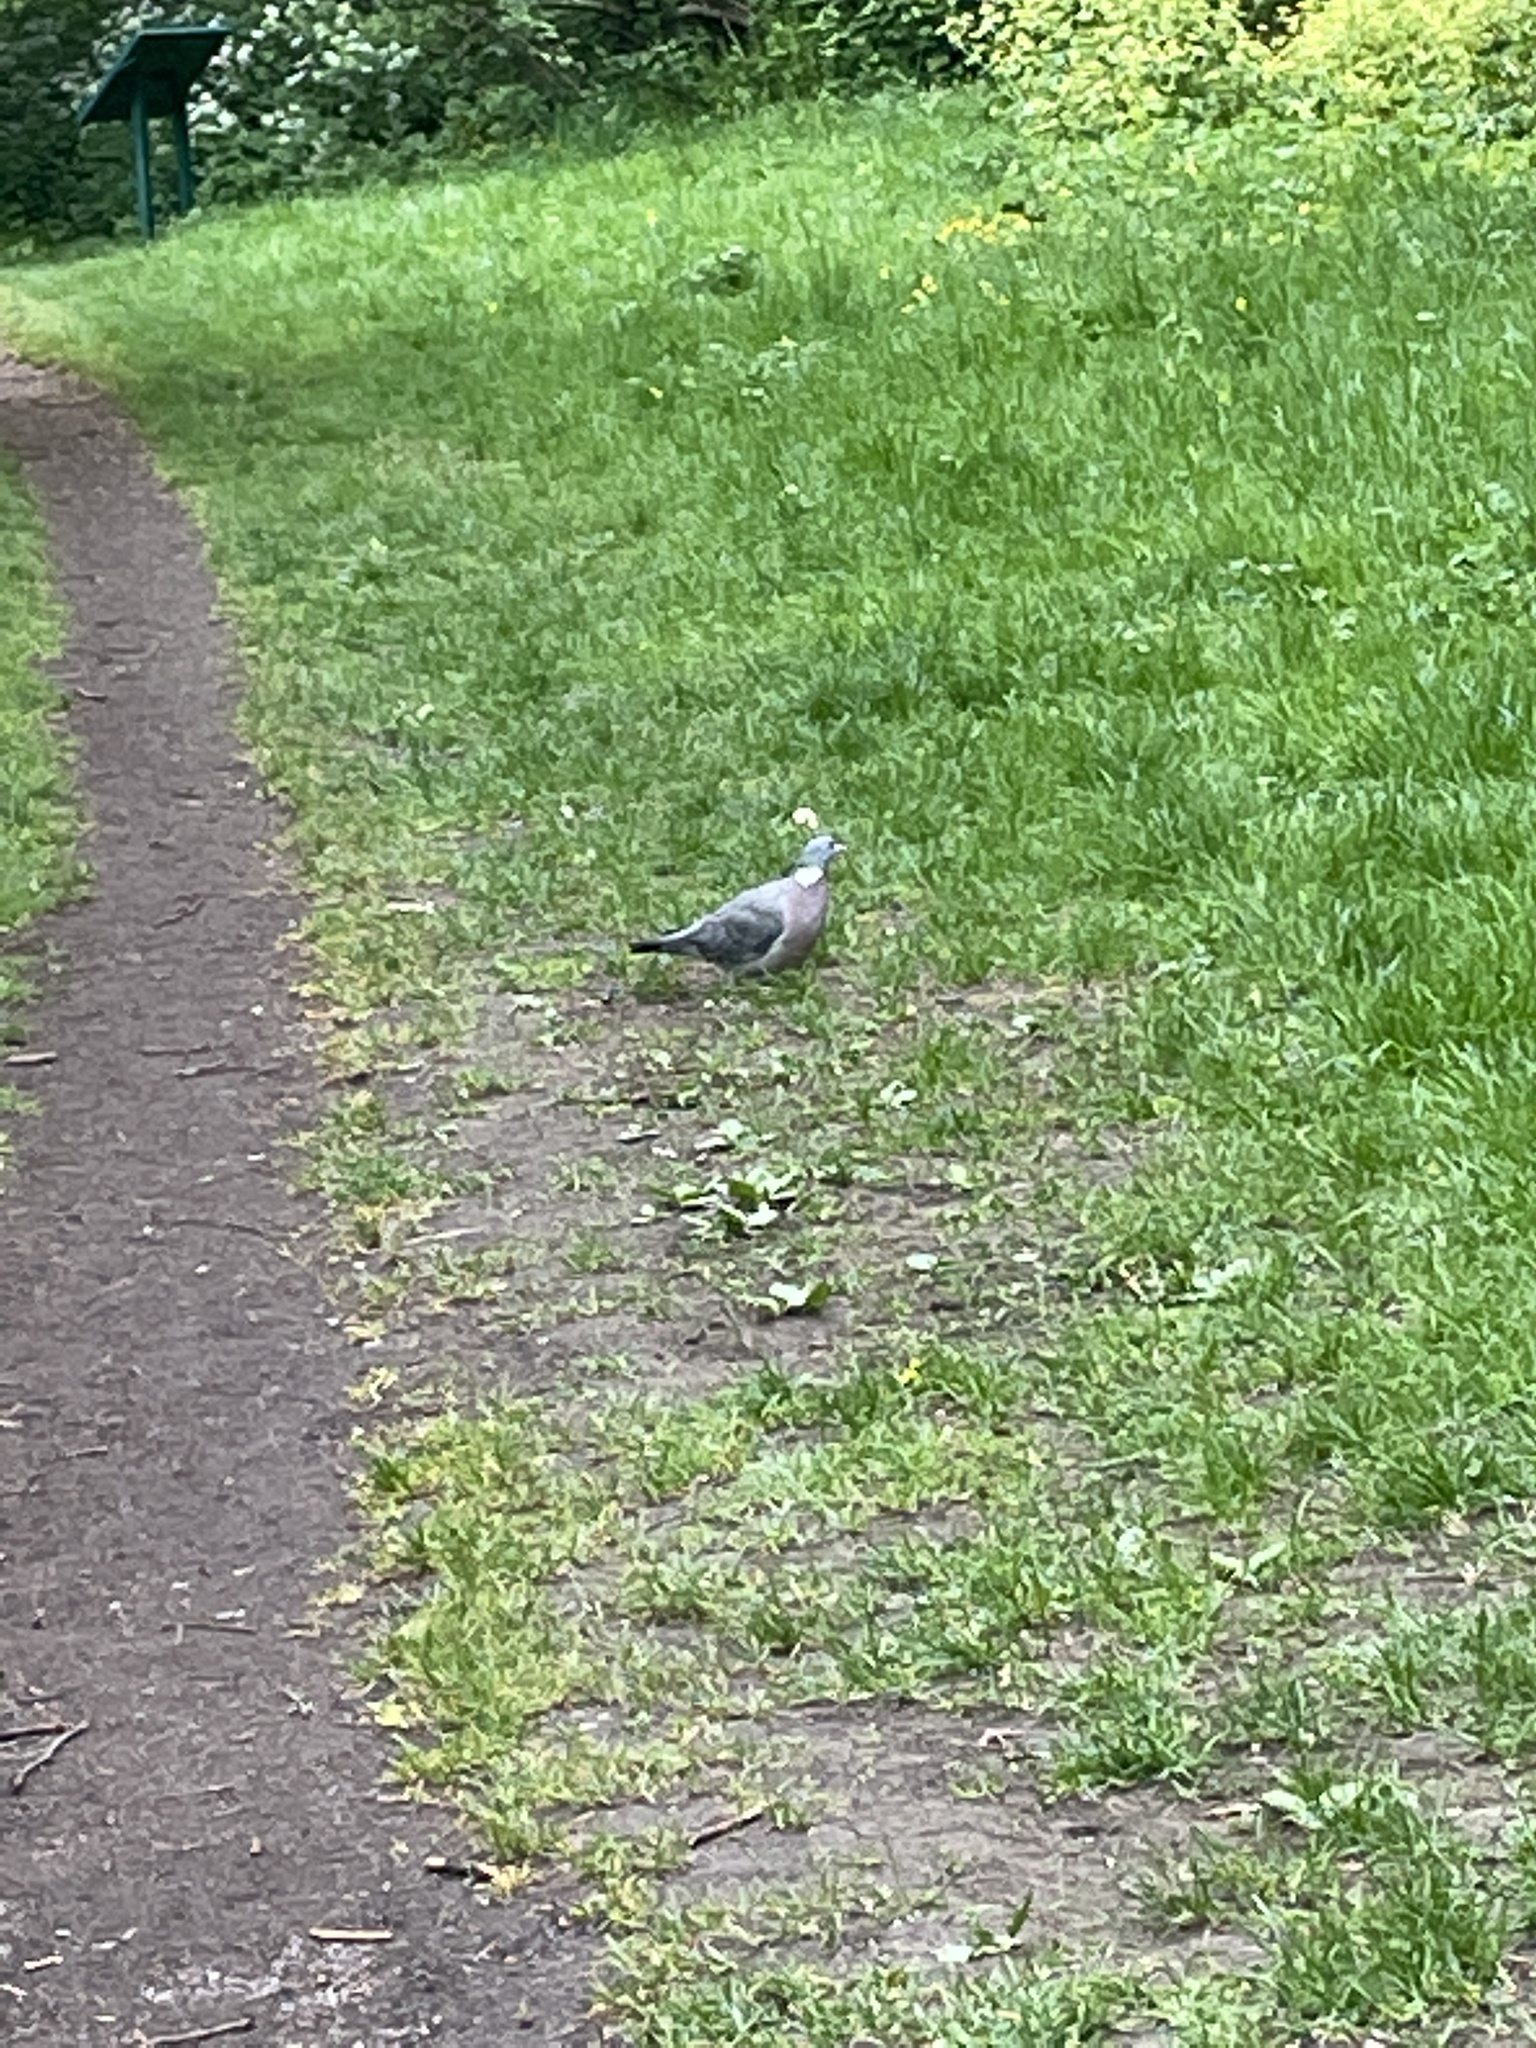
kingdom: Animalia
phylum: Chordata
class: Aves
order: Columbiformes
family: Columbidae
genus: Columba
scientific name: Columba palumbus
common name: Common wood pigeon
